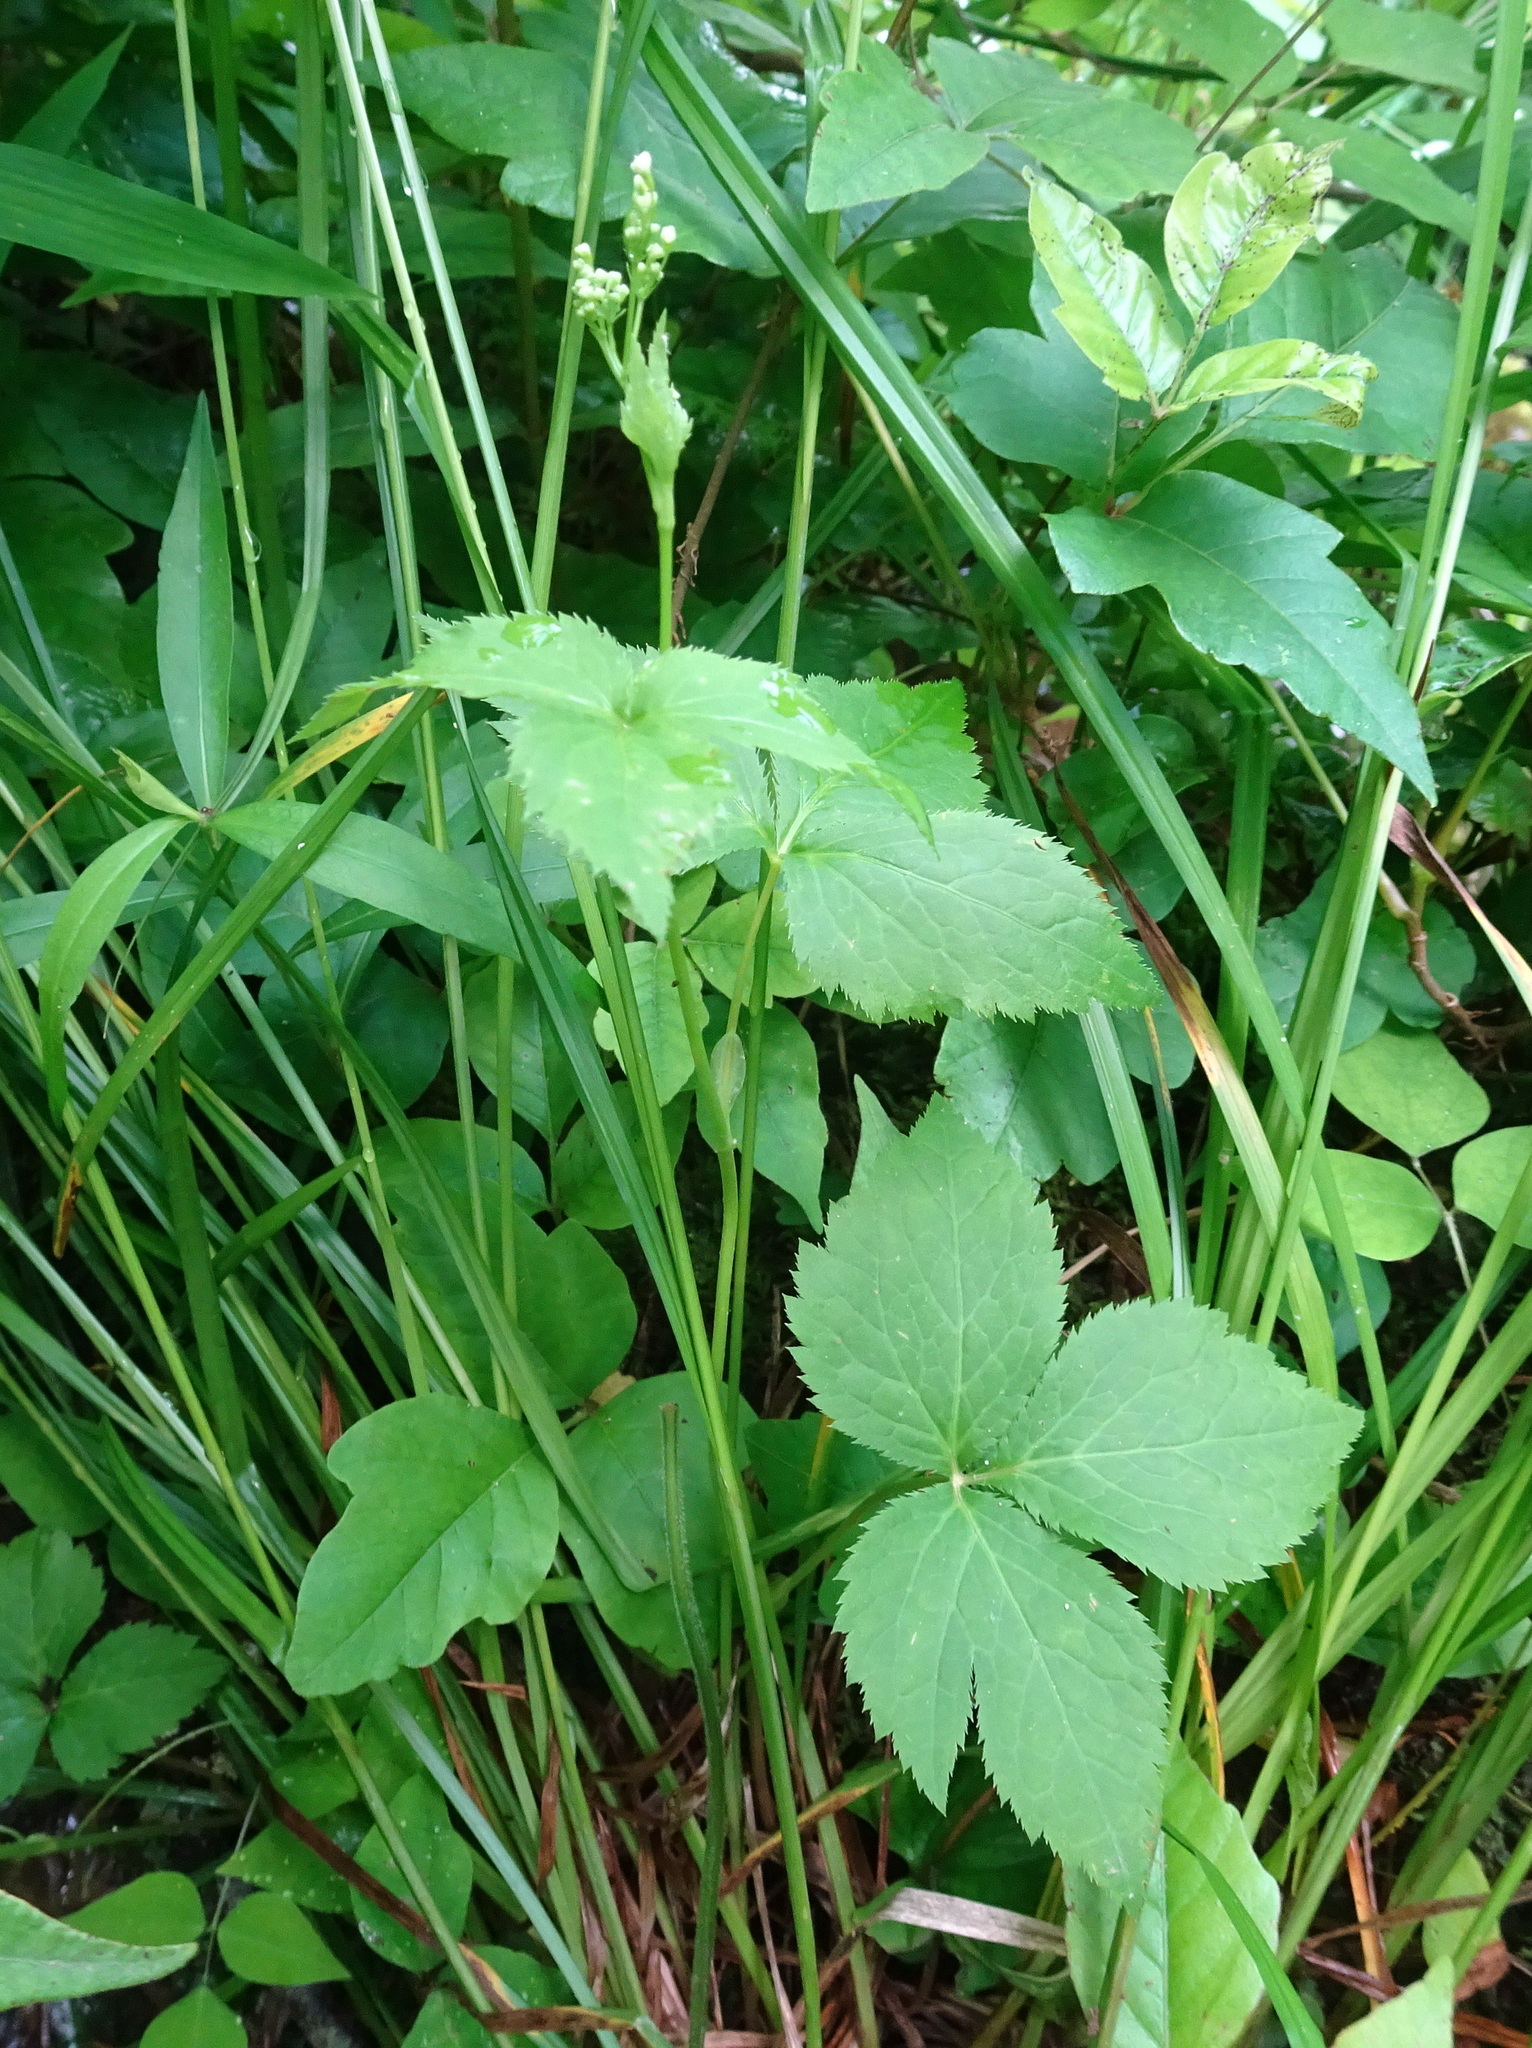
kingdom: Plantae
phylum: Tracheophyta
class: Magnoliopsida
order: Apiales
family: Apiaceae
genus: Cryptotaenia
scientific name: Cryptotaenia canadensis
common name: Honewort
